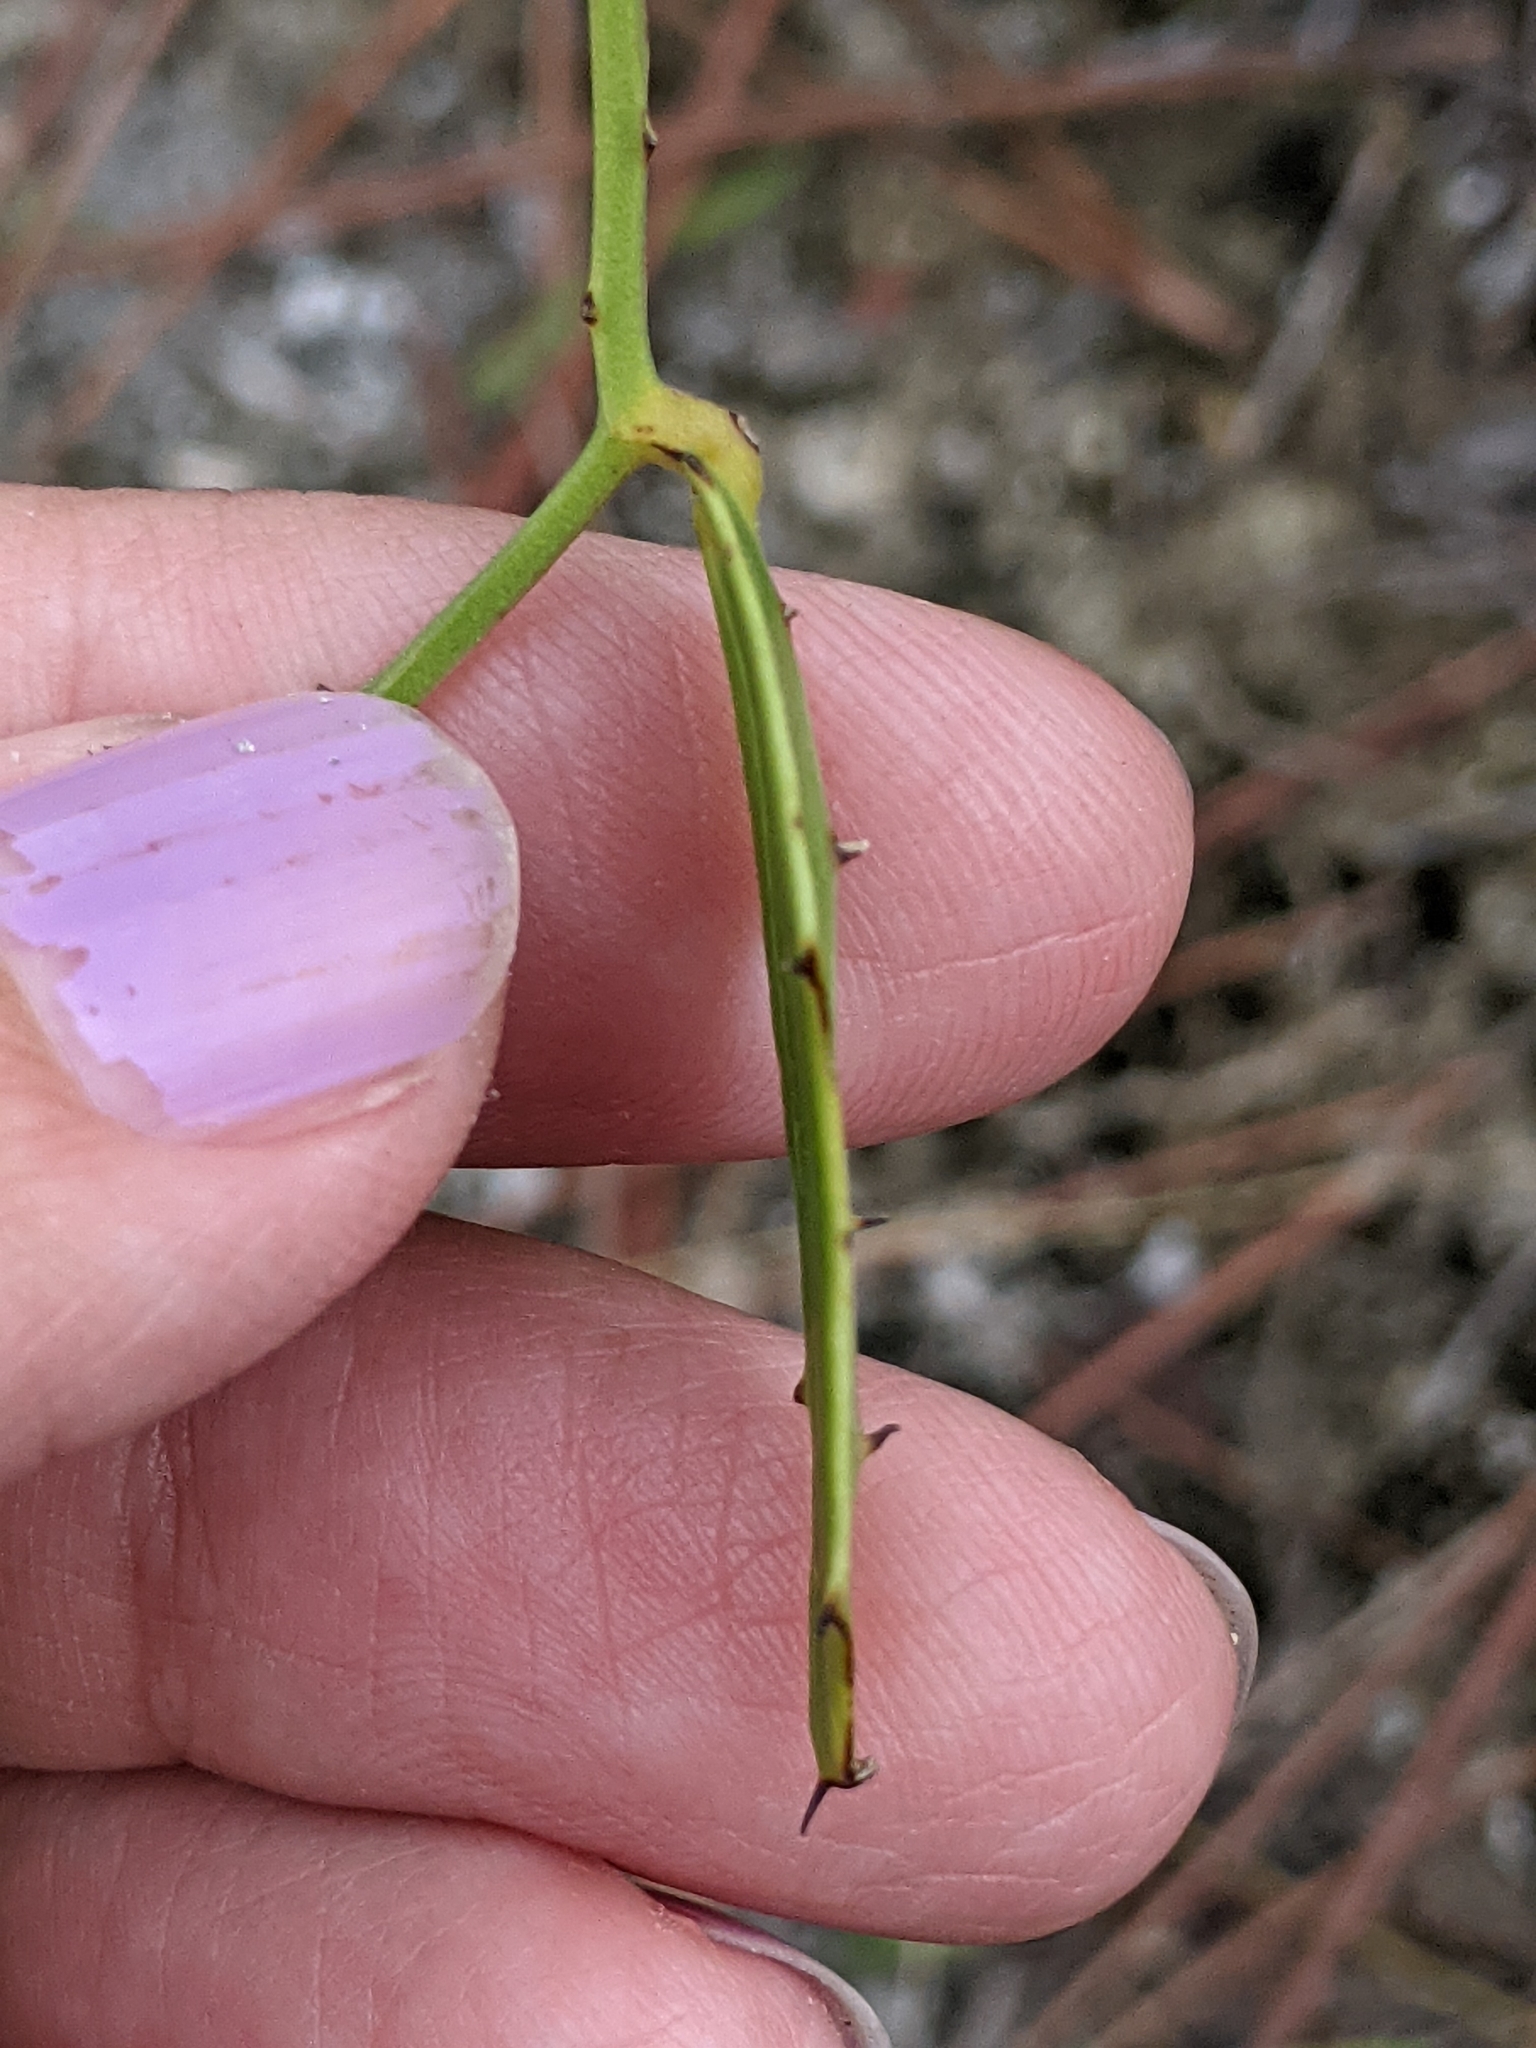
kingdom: Plantae
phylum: Tracheophyta
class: Liliopsida
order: Liliales
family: Smilacaceae
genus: Smilax
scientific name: Smilax havanensis
